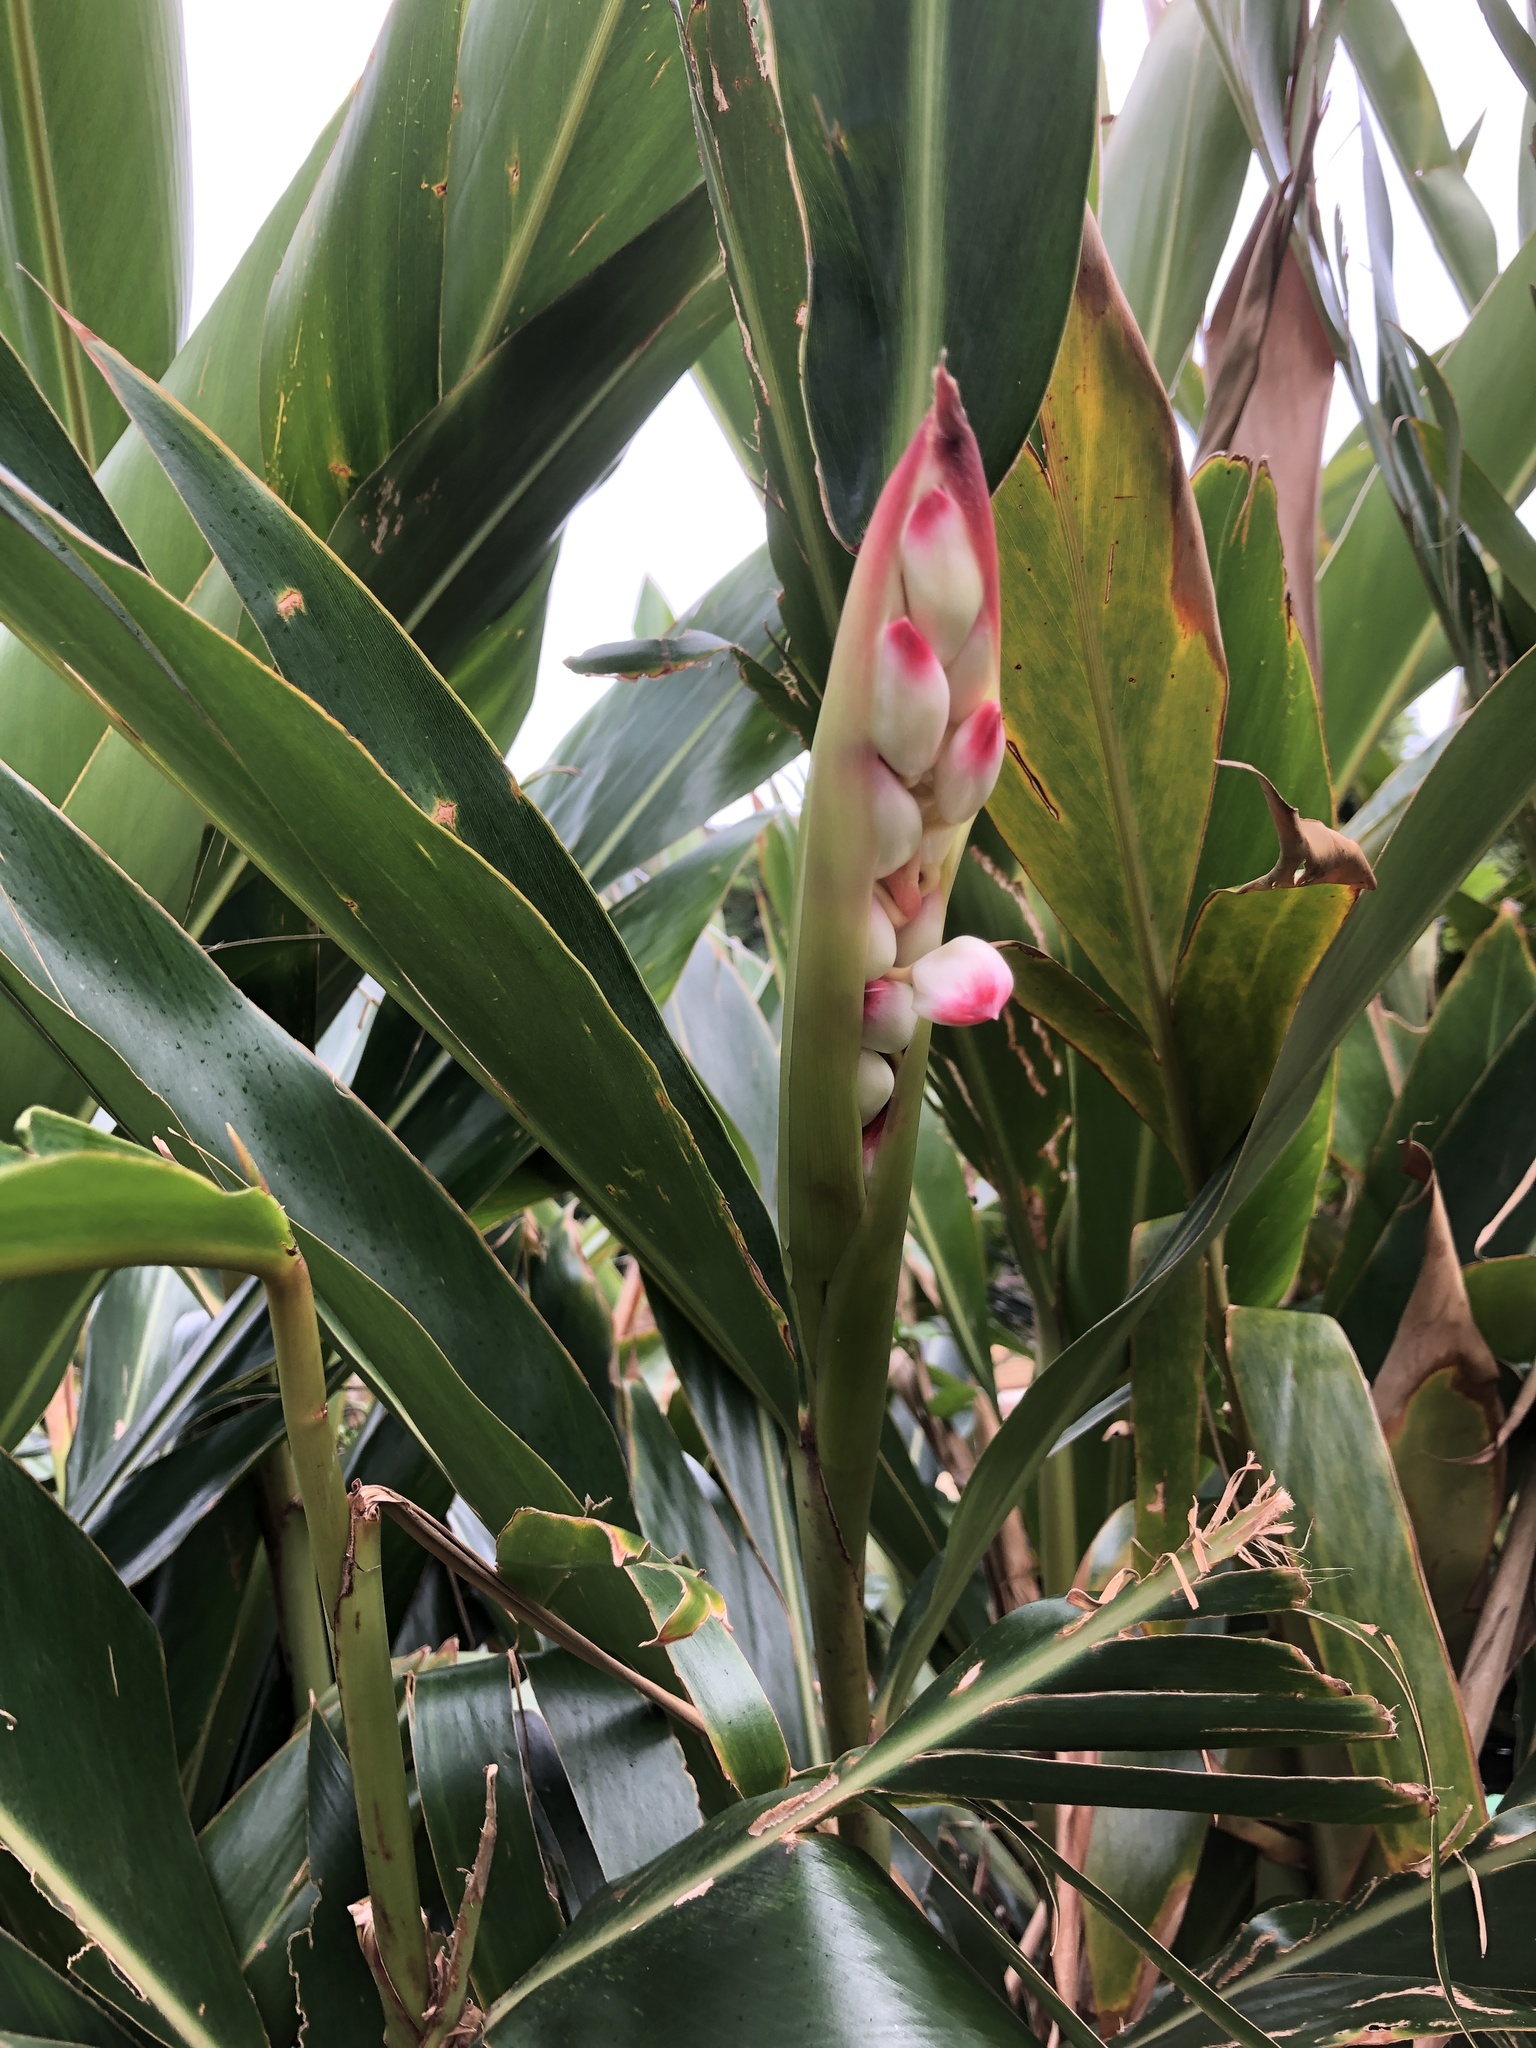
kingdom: Plantae
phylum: Tracheophyta
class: Liliopsida
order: Zingiberales
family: Zingiberaceae
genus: Alpinia
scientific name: Alpinia zerumbet
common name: Shellplant
